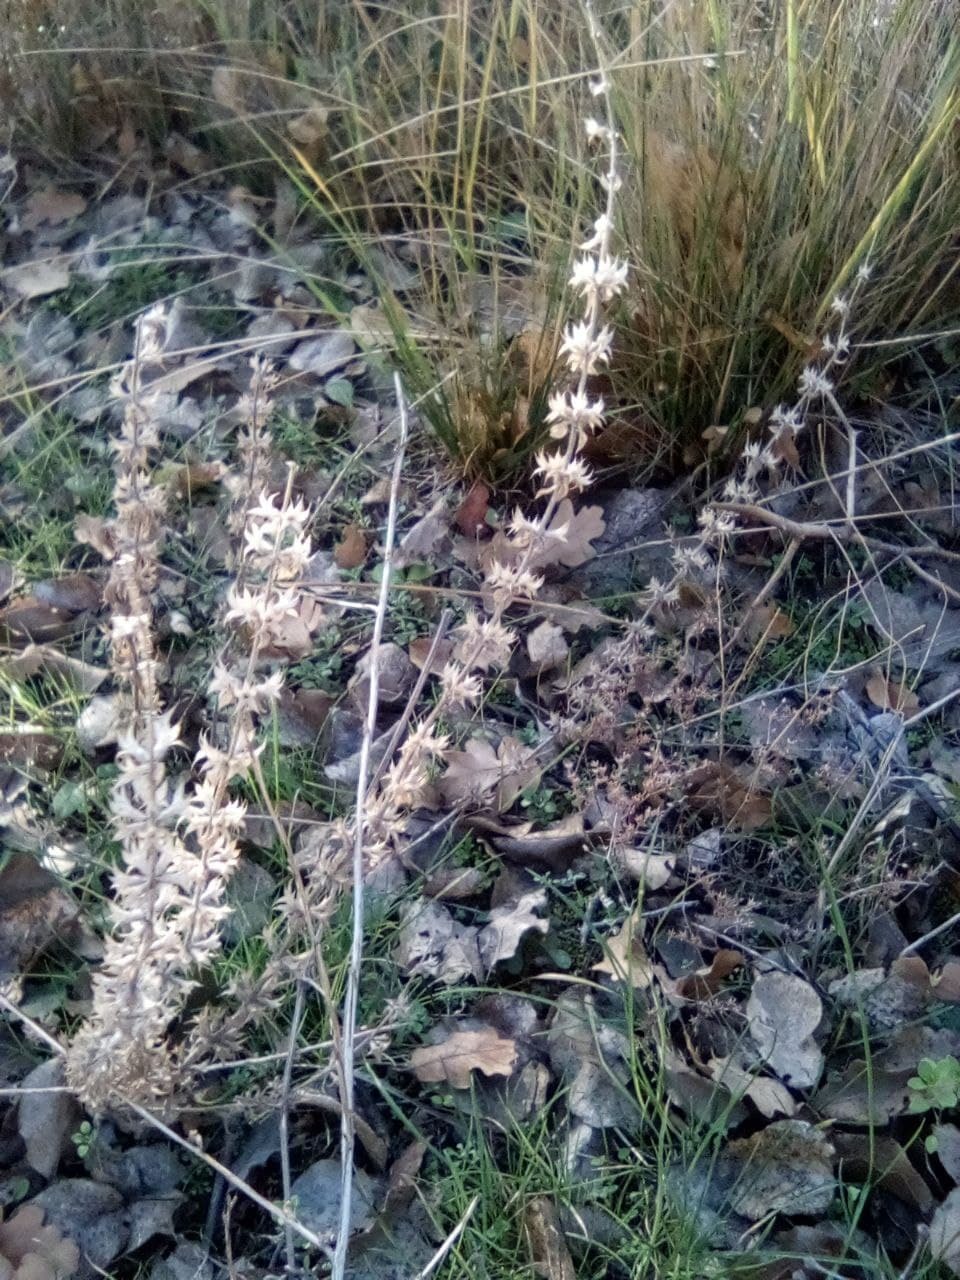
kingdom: Plantae
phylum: Tracheophyta
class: Magnoliopsida
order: Lamiales
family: Lamiaceae
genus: Sideritis
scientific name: Sideritis montana
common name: Mountain ironwort
